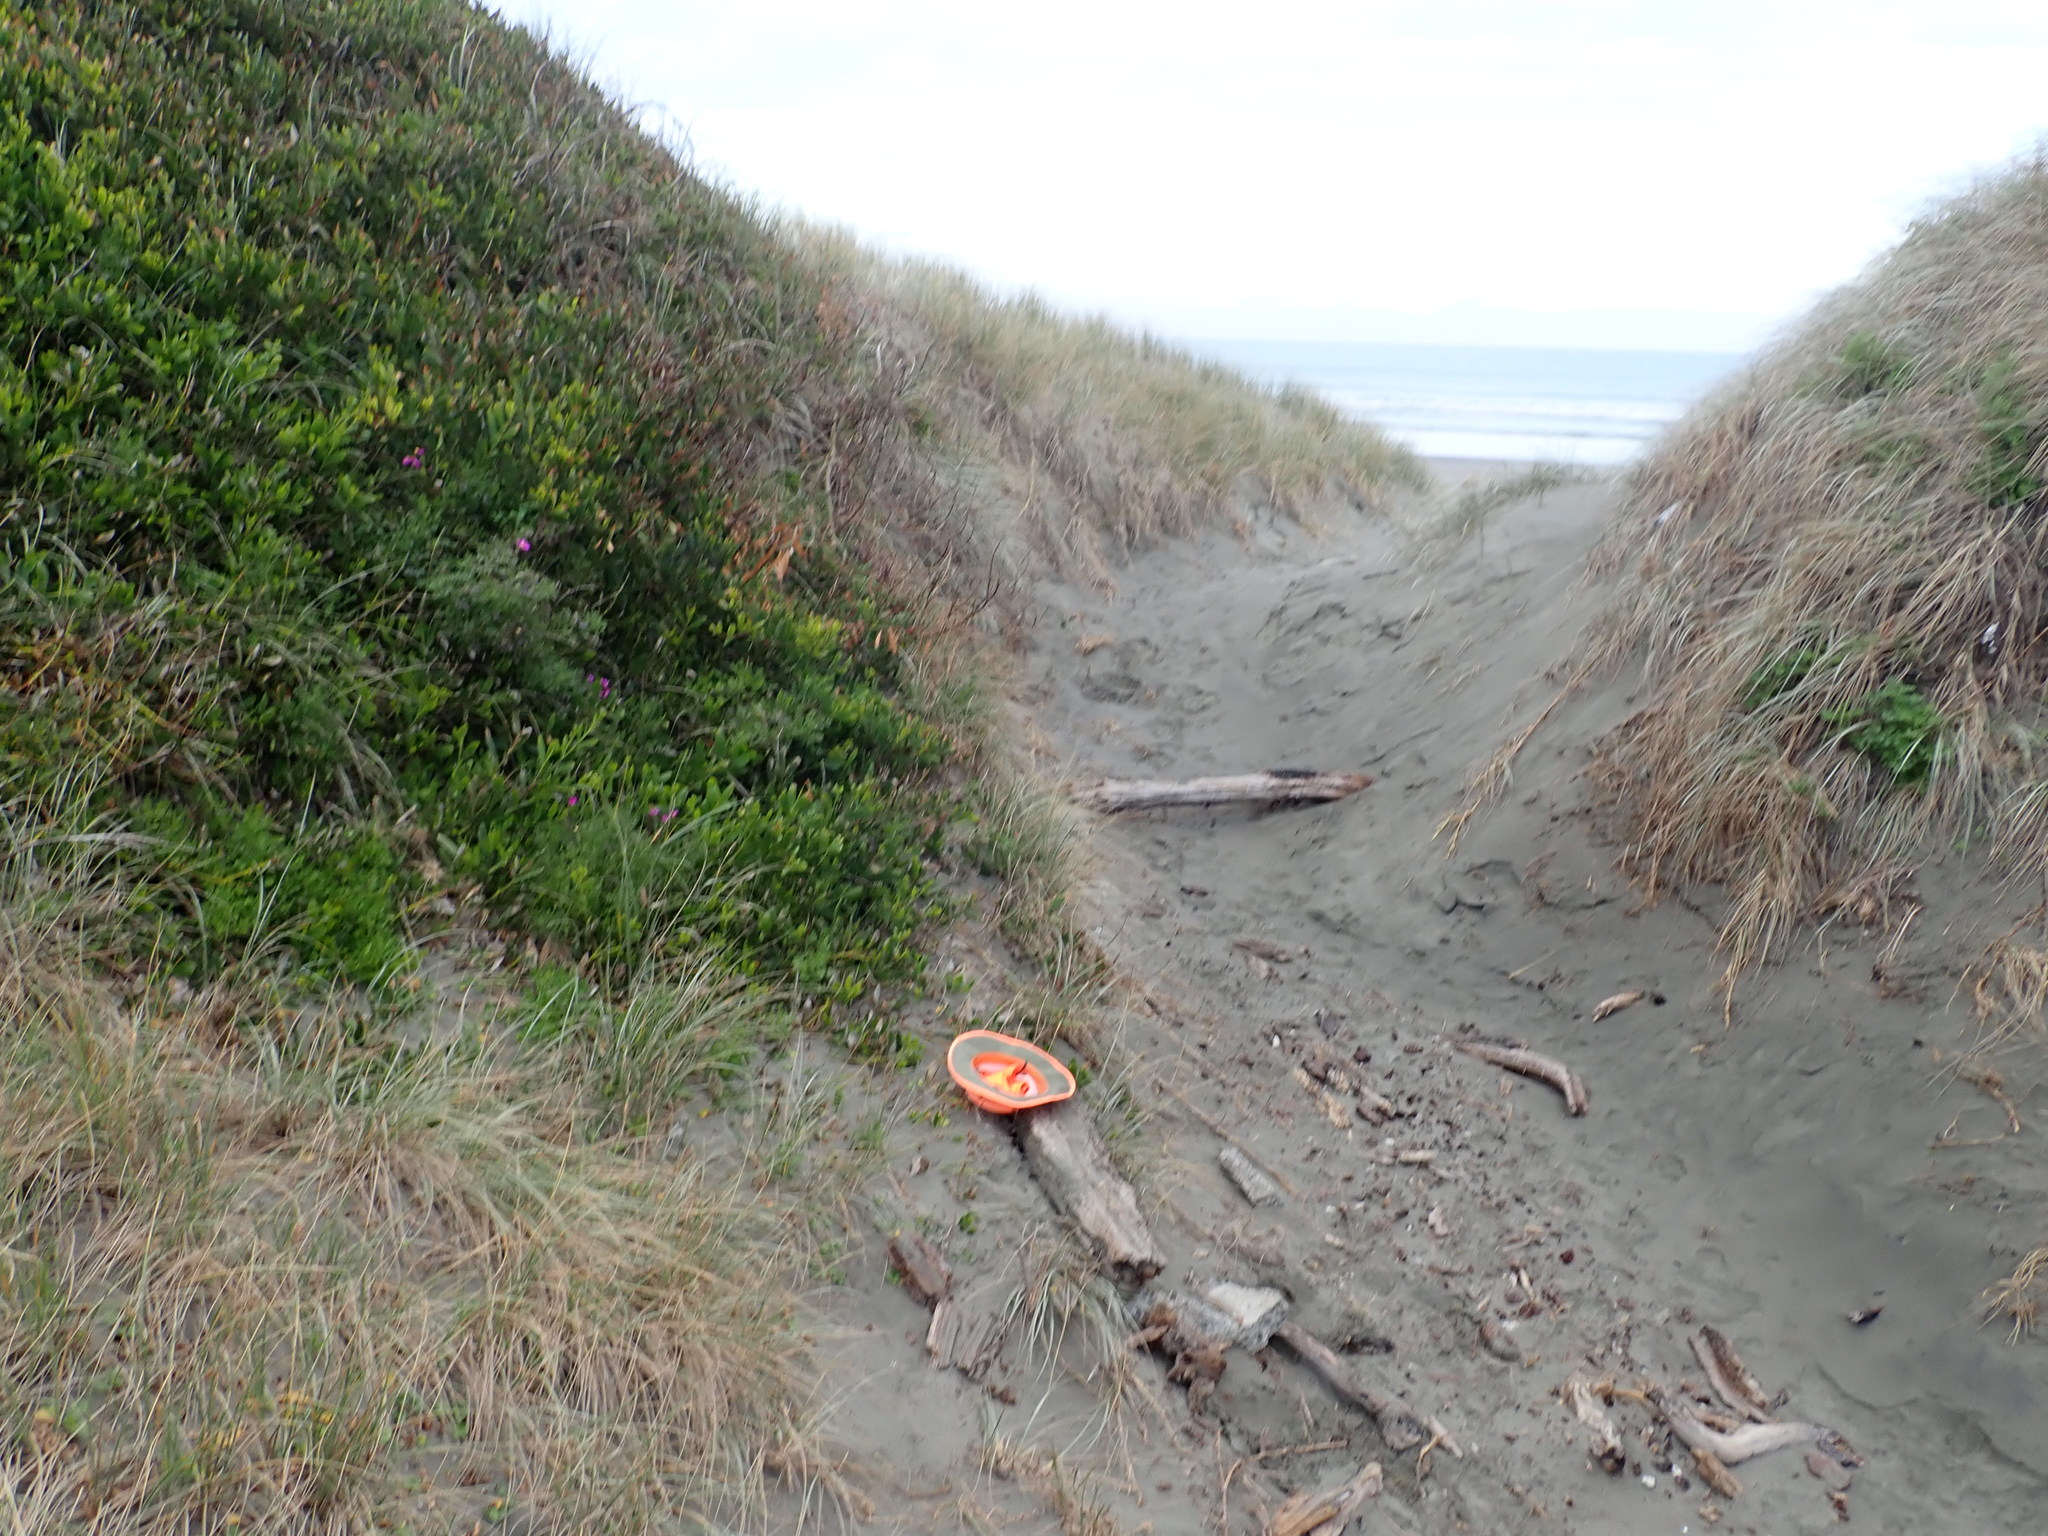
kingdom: Animalia
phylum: Arthropoda
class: Arachnida
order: Araneae
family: Theridiidae
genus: Steatoda
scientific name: Steatoda capensis
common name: Cobweb weaver
